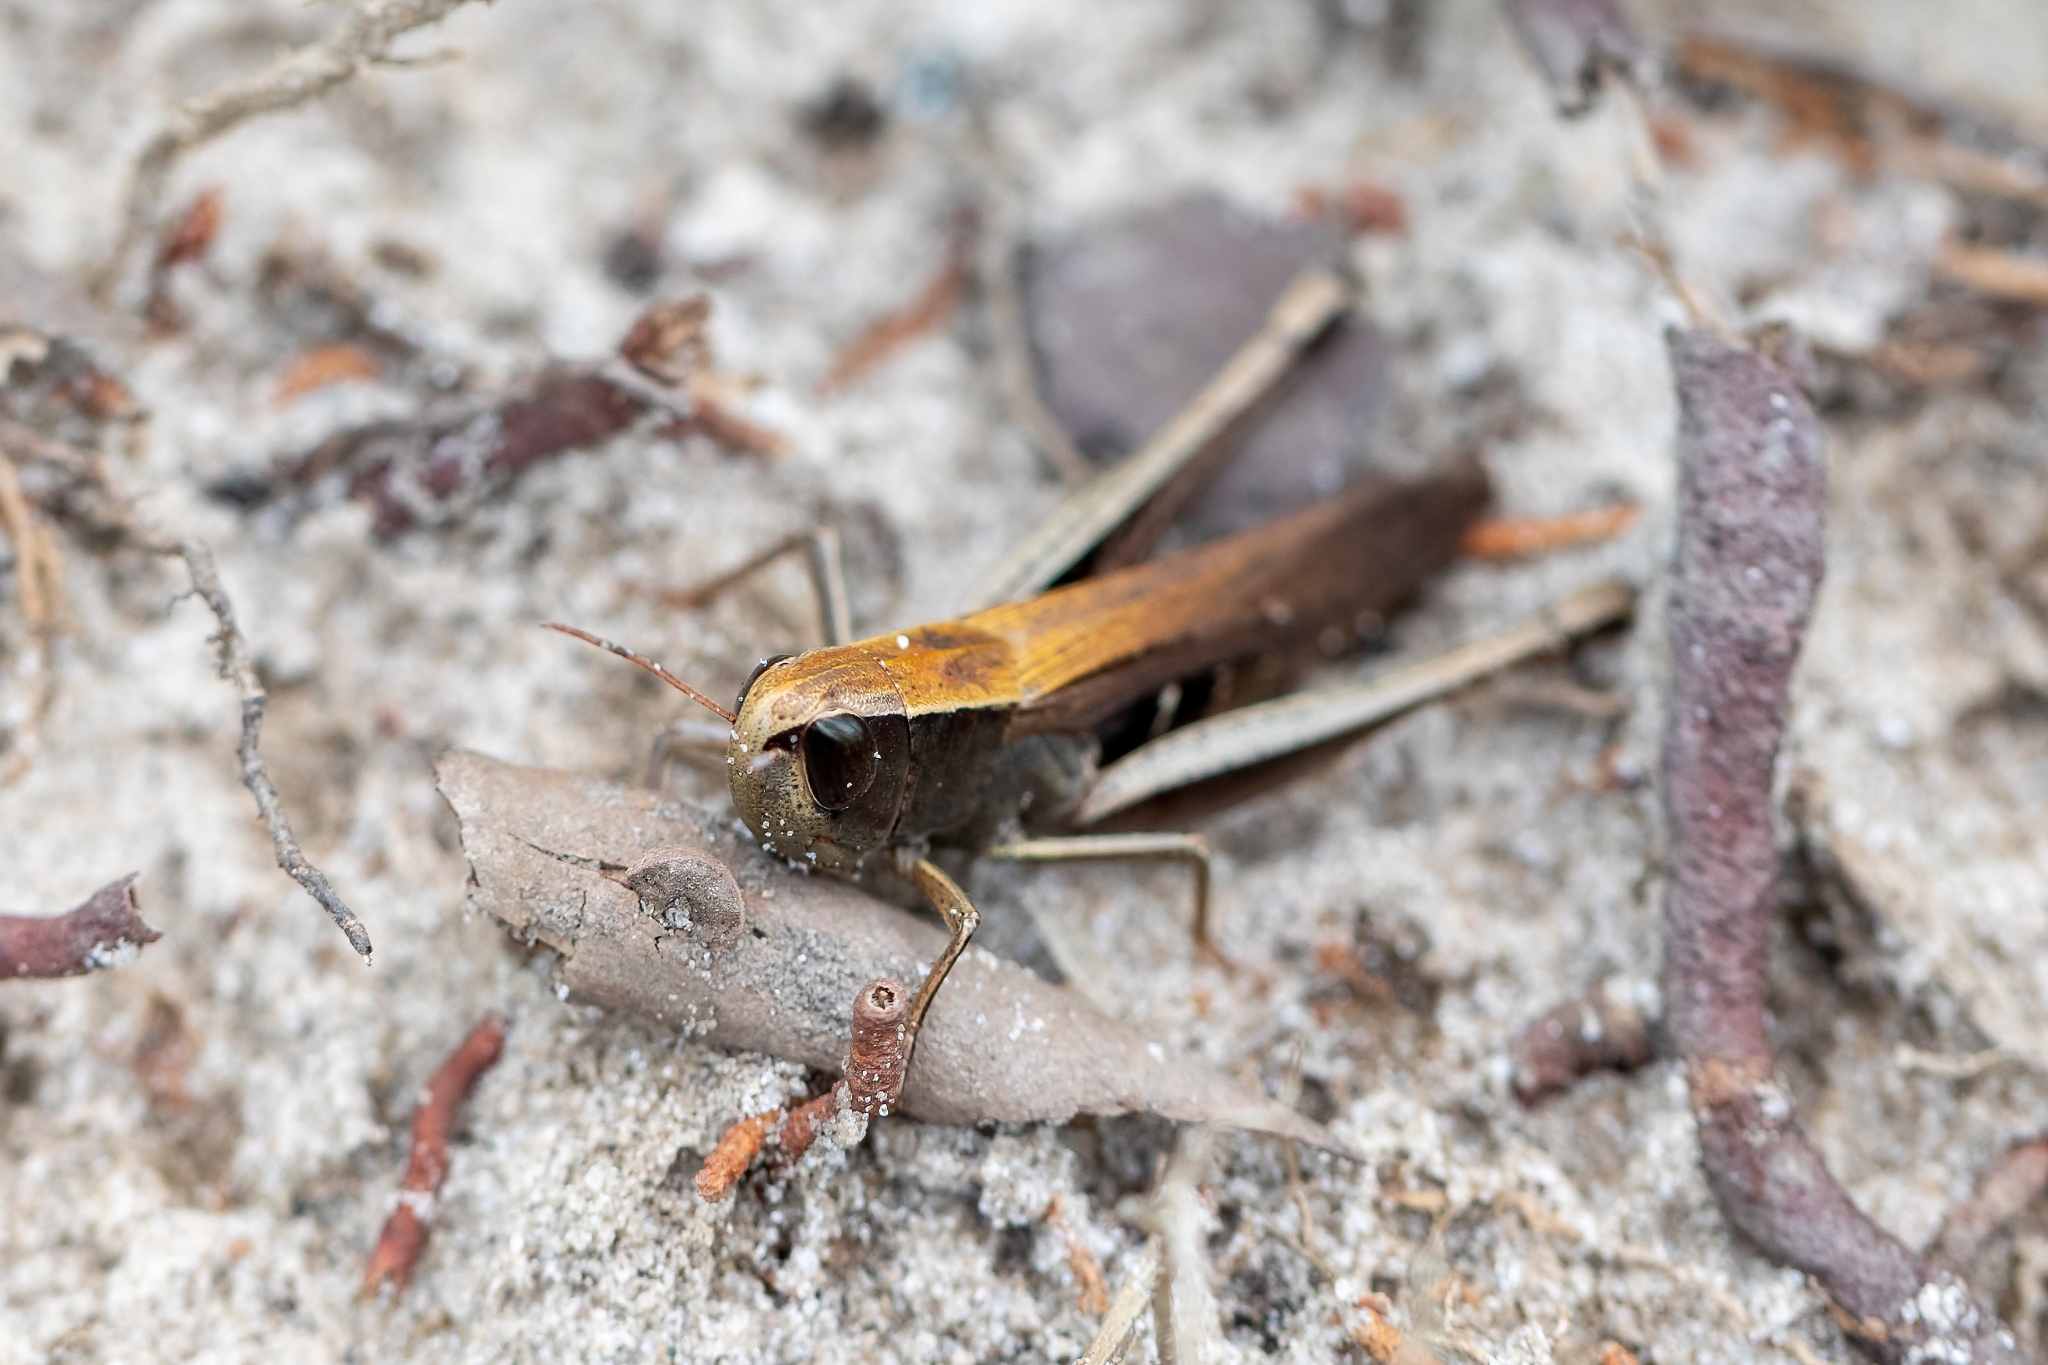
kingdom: Animalia
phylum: Arthropoda
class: Insecta
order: Orthoptera
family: Acrididae
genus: Amblytropidia
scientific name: Amblytropidia mysteca
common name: Brown winter grasshopper
